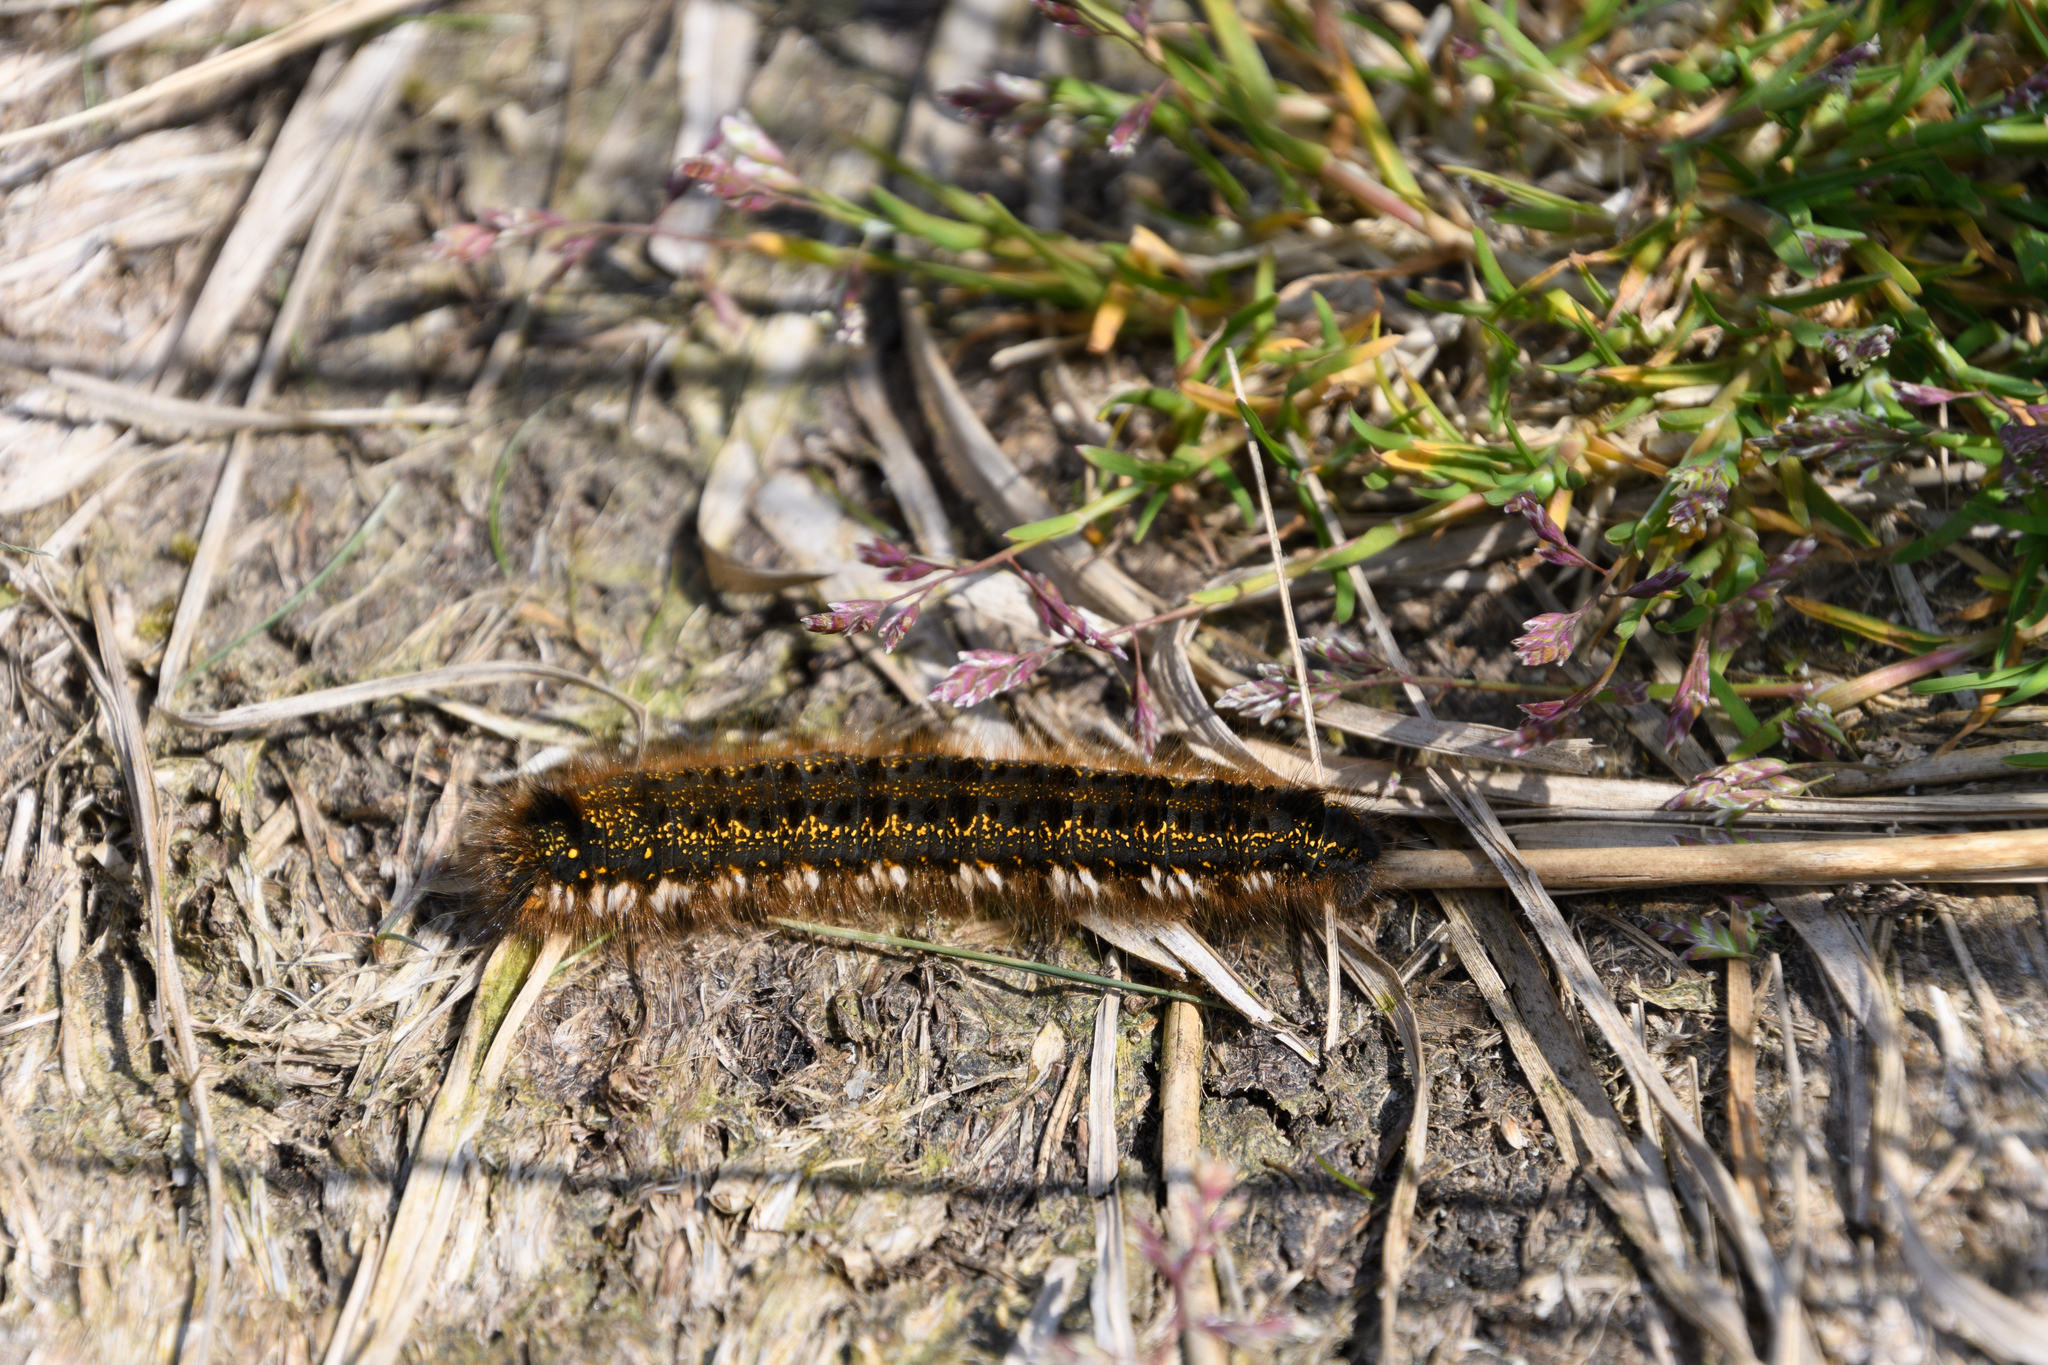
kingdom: Animalia
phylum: Arthropoda
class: Insecta
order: Lepidoptera
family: Lasiocampidae
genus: Euthrix
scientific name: Euthrix potatoria
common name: Drinker
